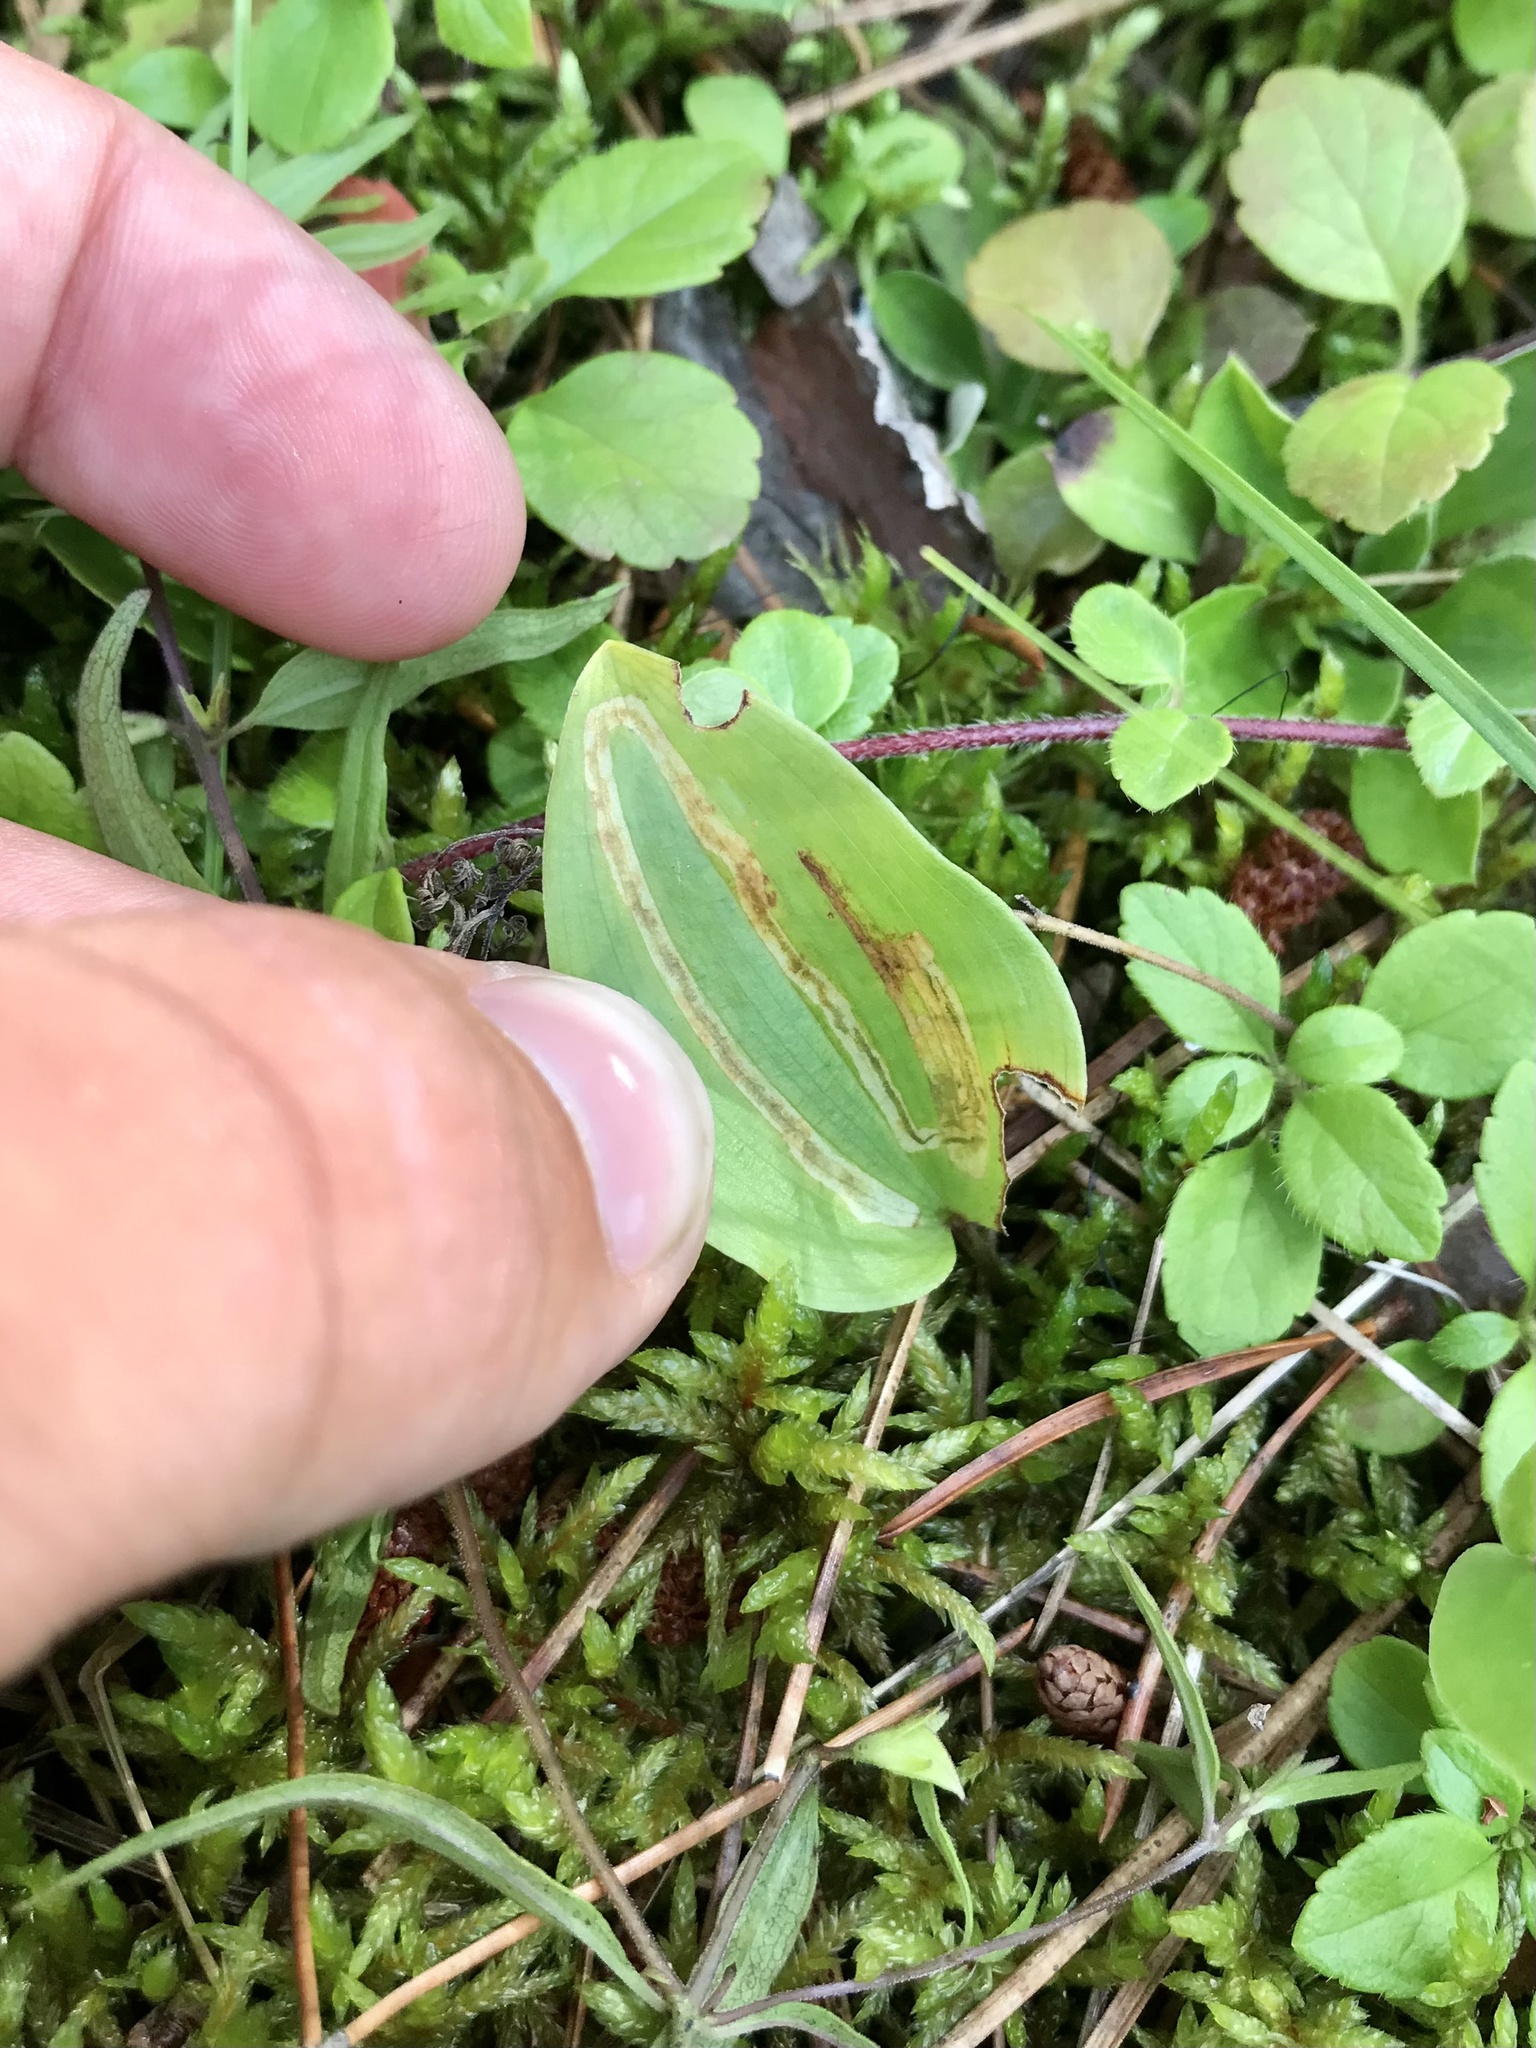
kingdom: Animalia
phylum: Arthropoda
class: Insecta
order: Diptera
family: Agromyzidae
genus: Liriomyza
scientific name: Liriomyza smilacinae
